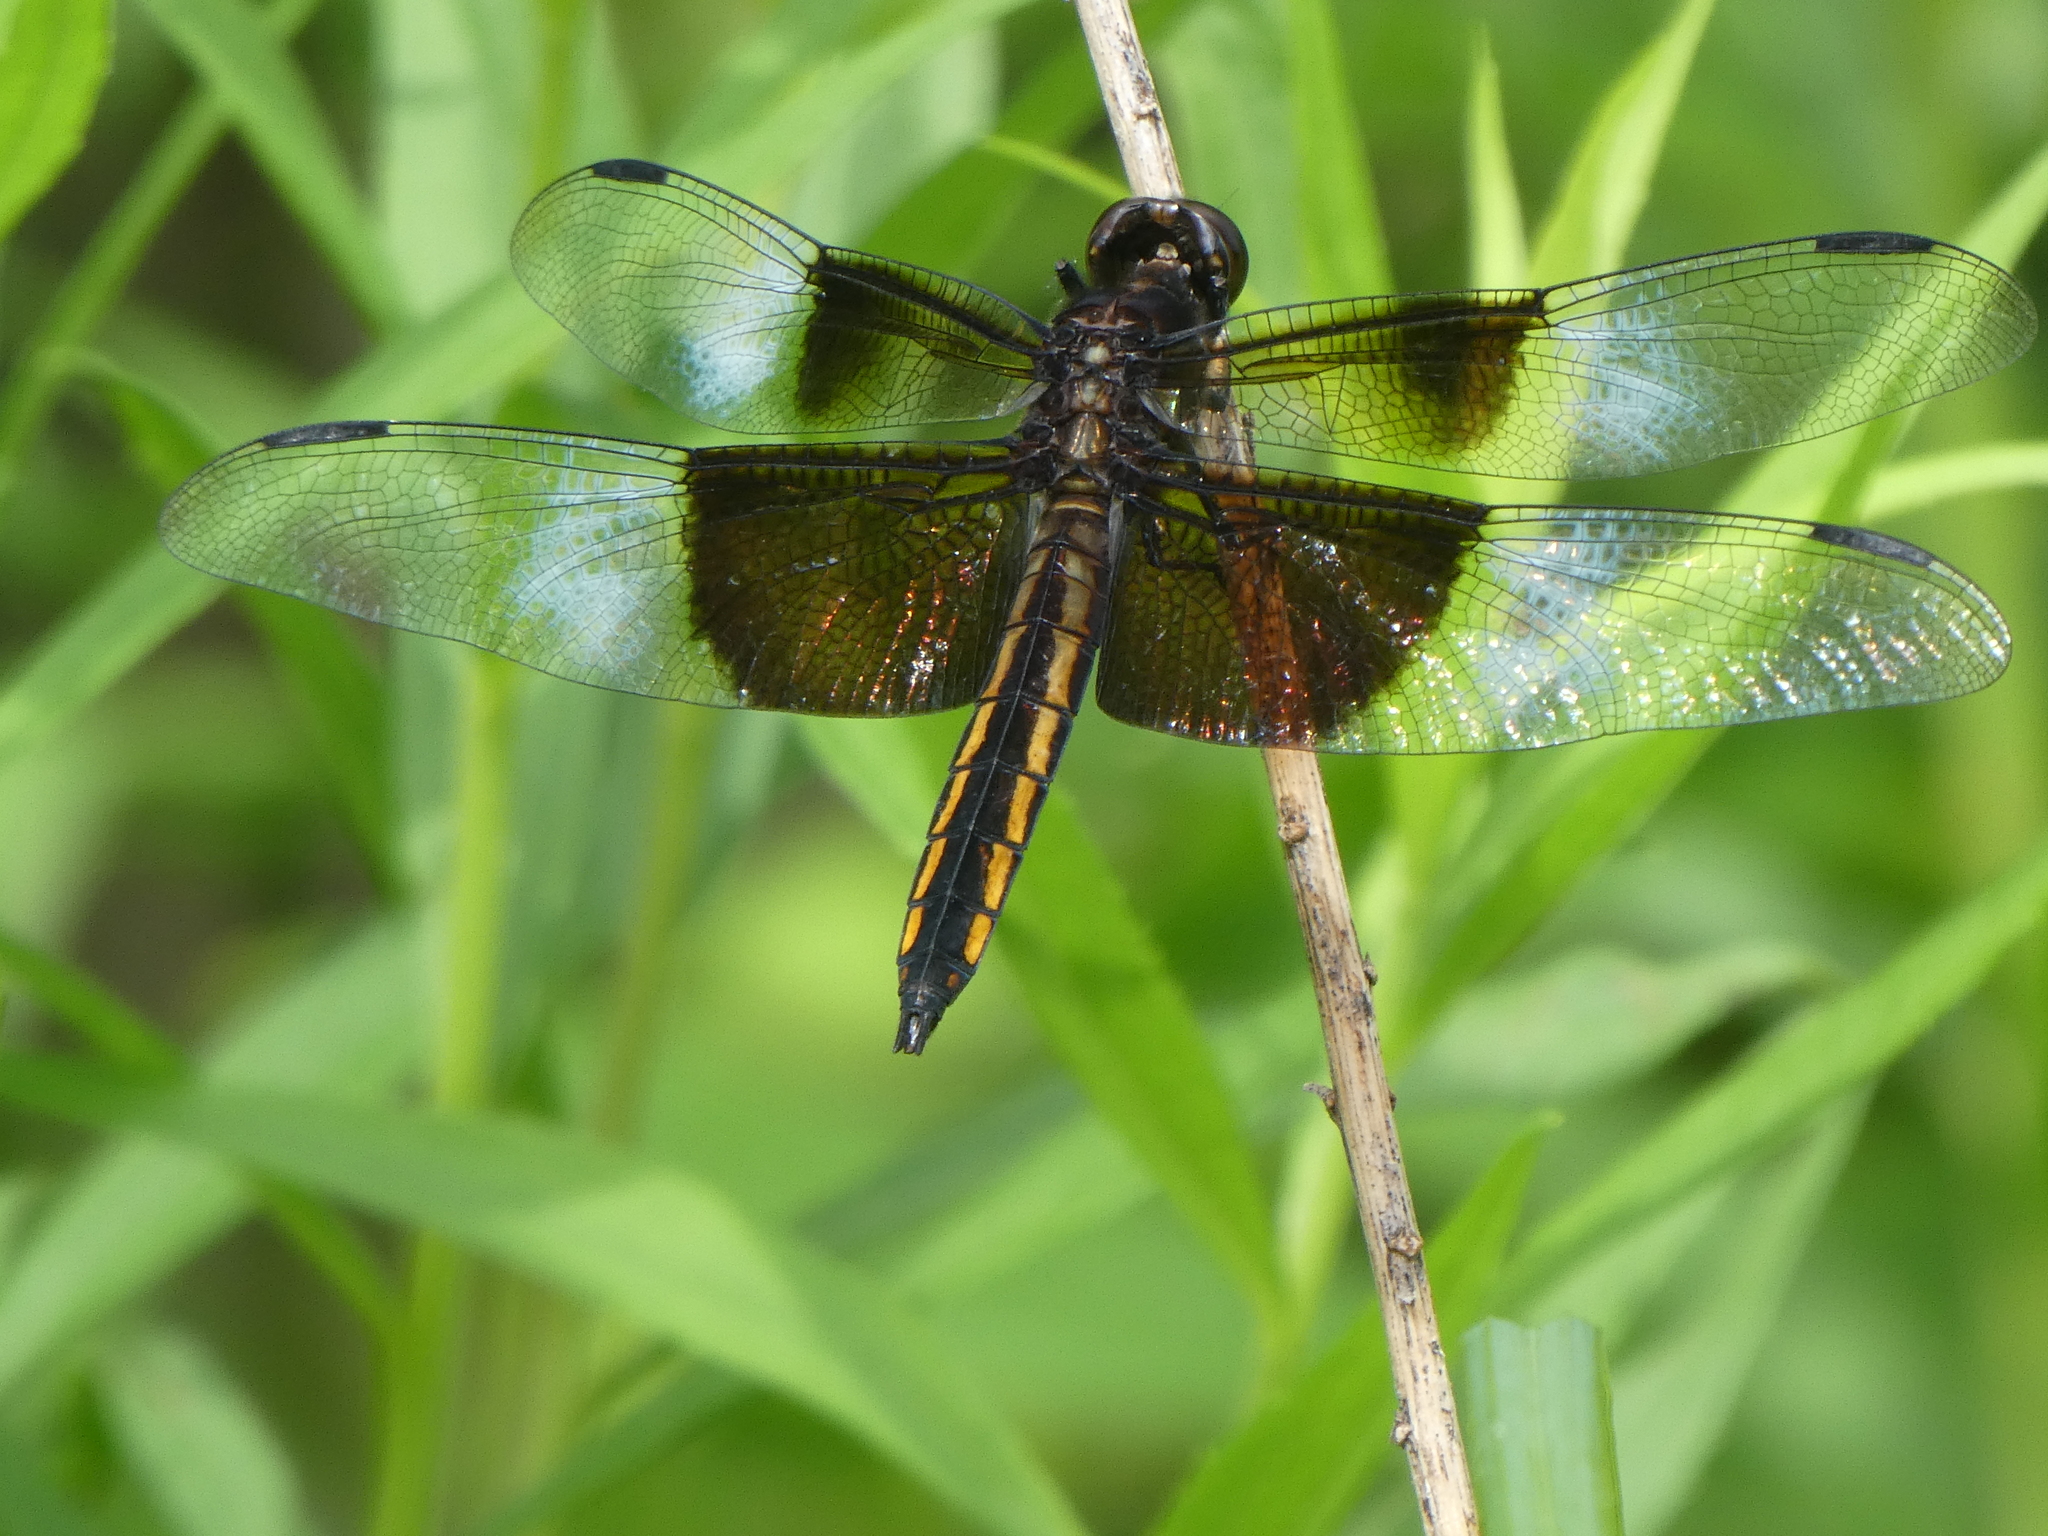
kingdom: Animalia
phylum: Arthropoda
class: Insecta
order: Odonata
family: Libellulidae
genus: Libellula
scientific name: Libellula luctuosa
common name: Widow skimmer
